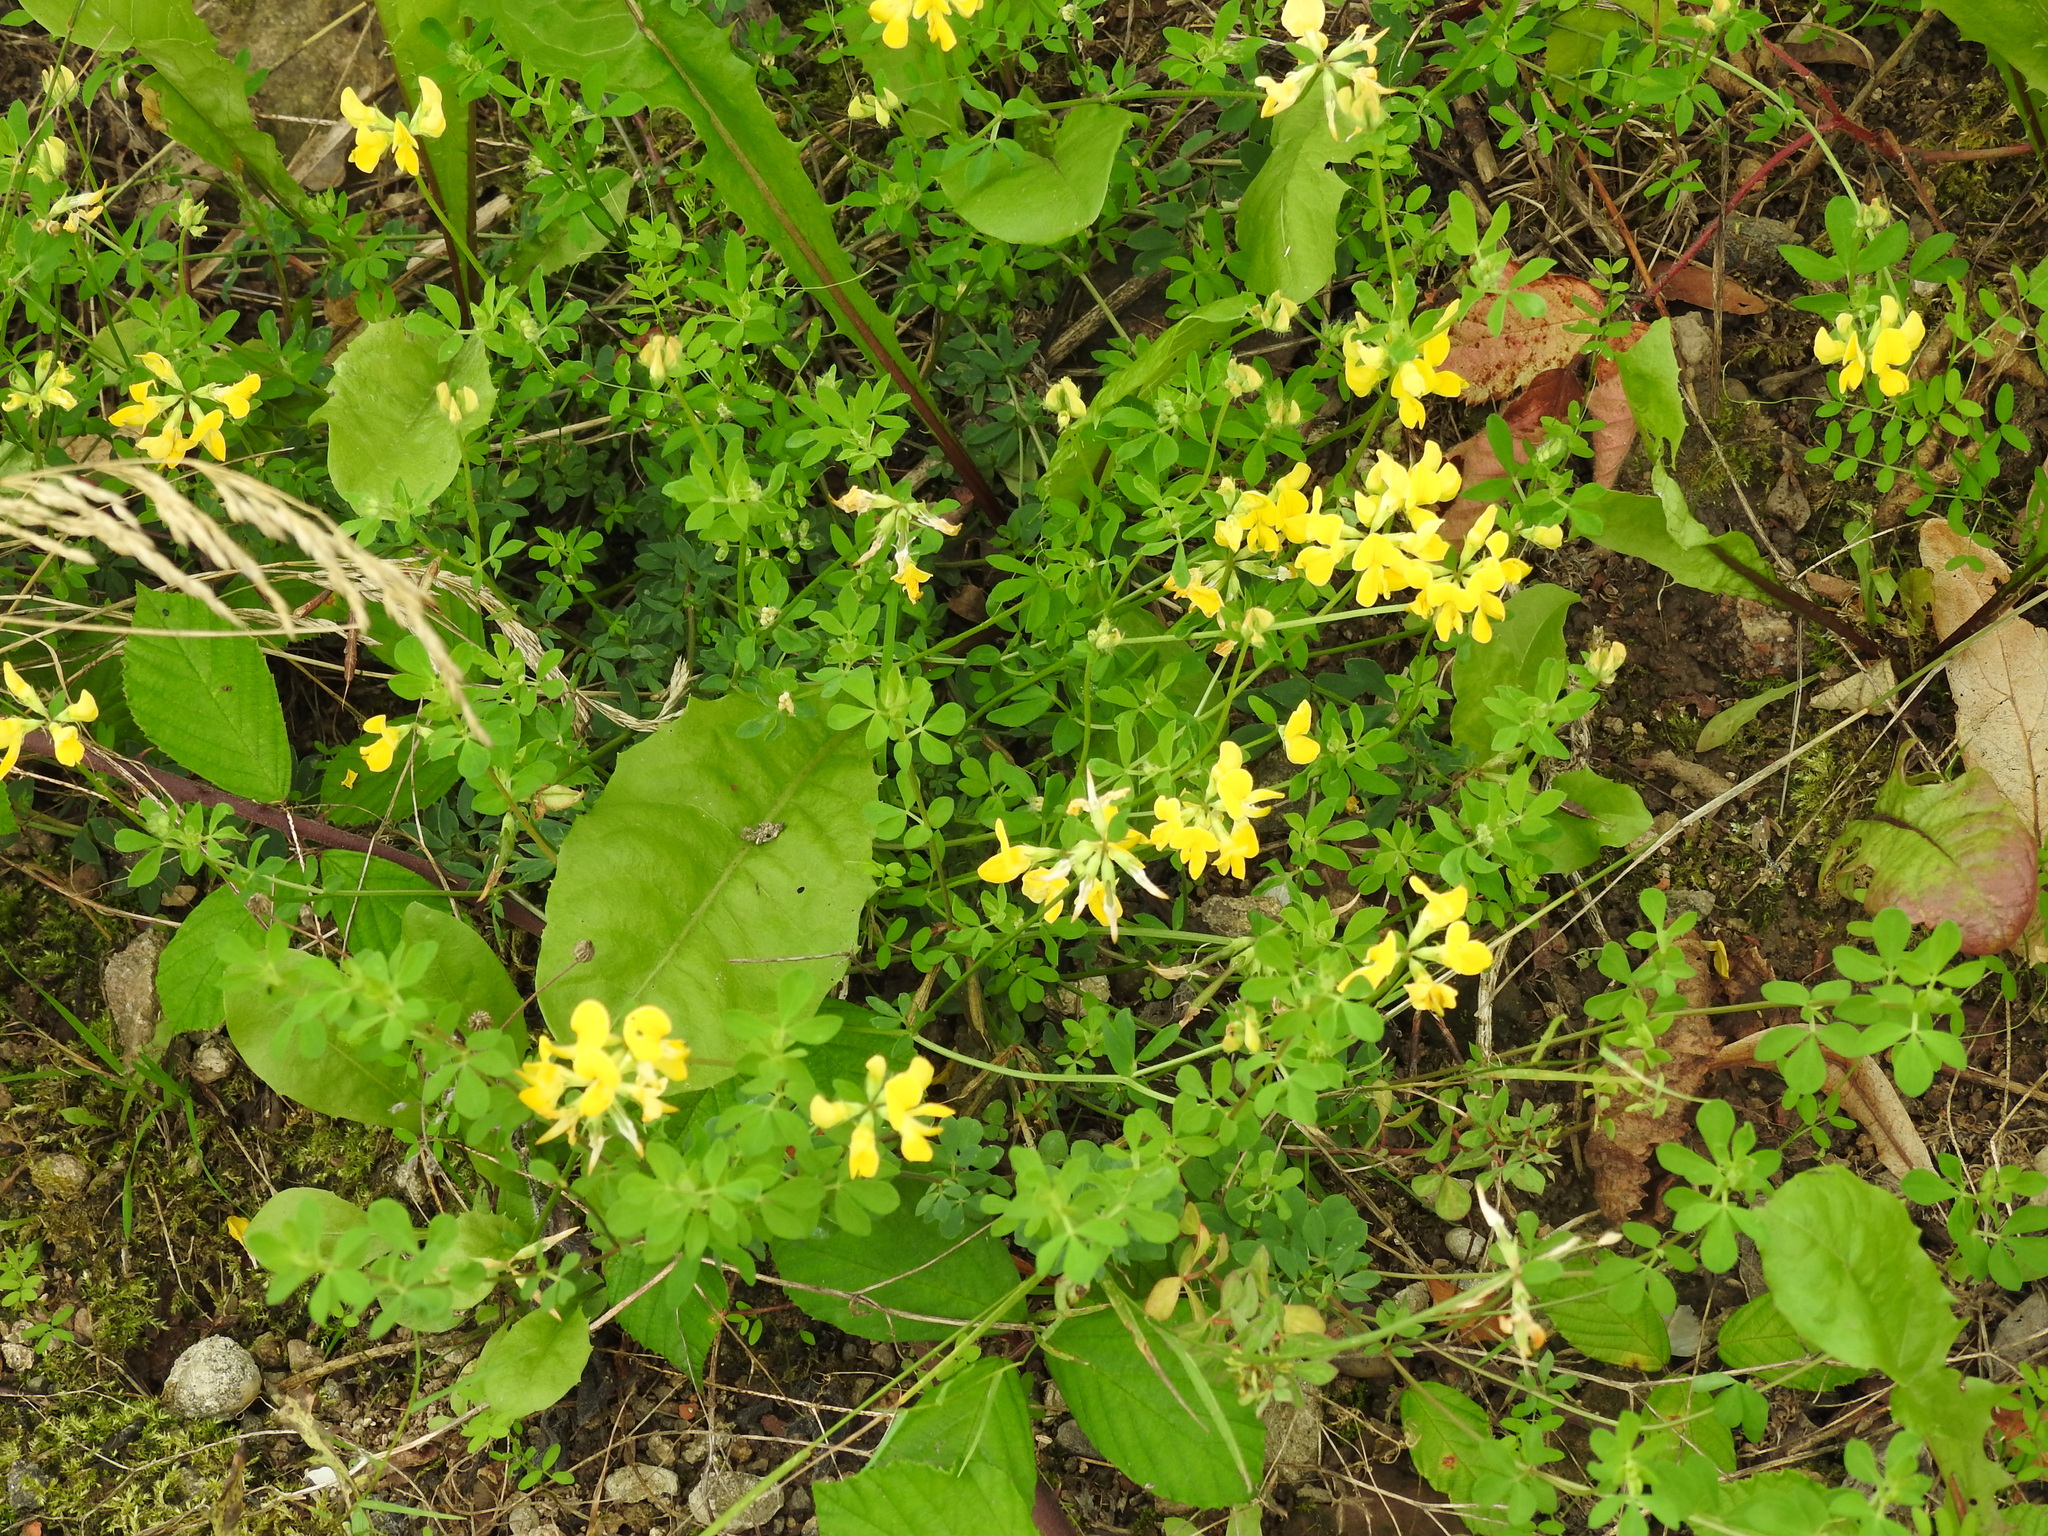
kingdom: Plantae
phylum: Tracheophyta
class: Magnoliopsida
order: Fabales
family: Fabaceae
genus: Lotus
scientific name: Lotus corniculatus
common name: Common bird's-foot-trefoil
